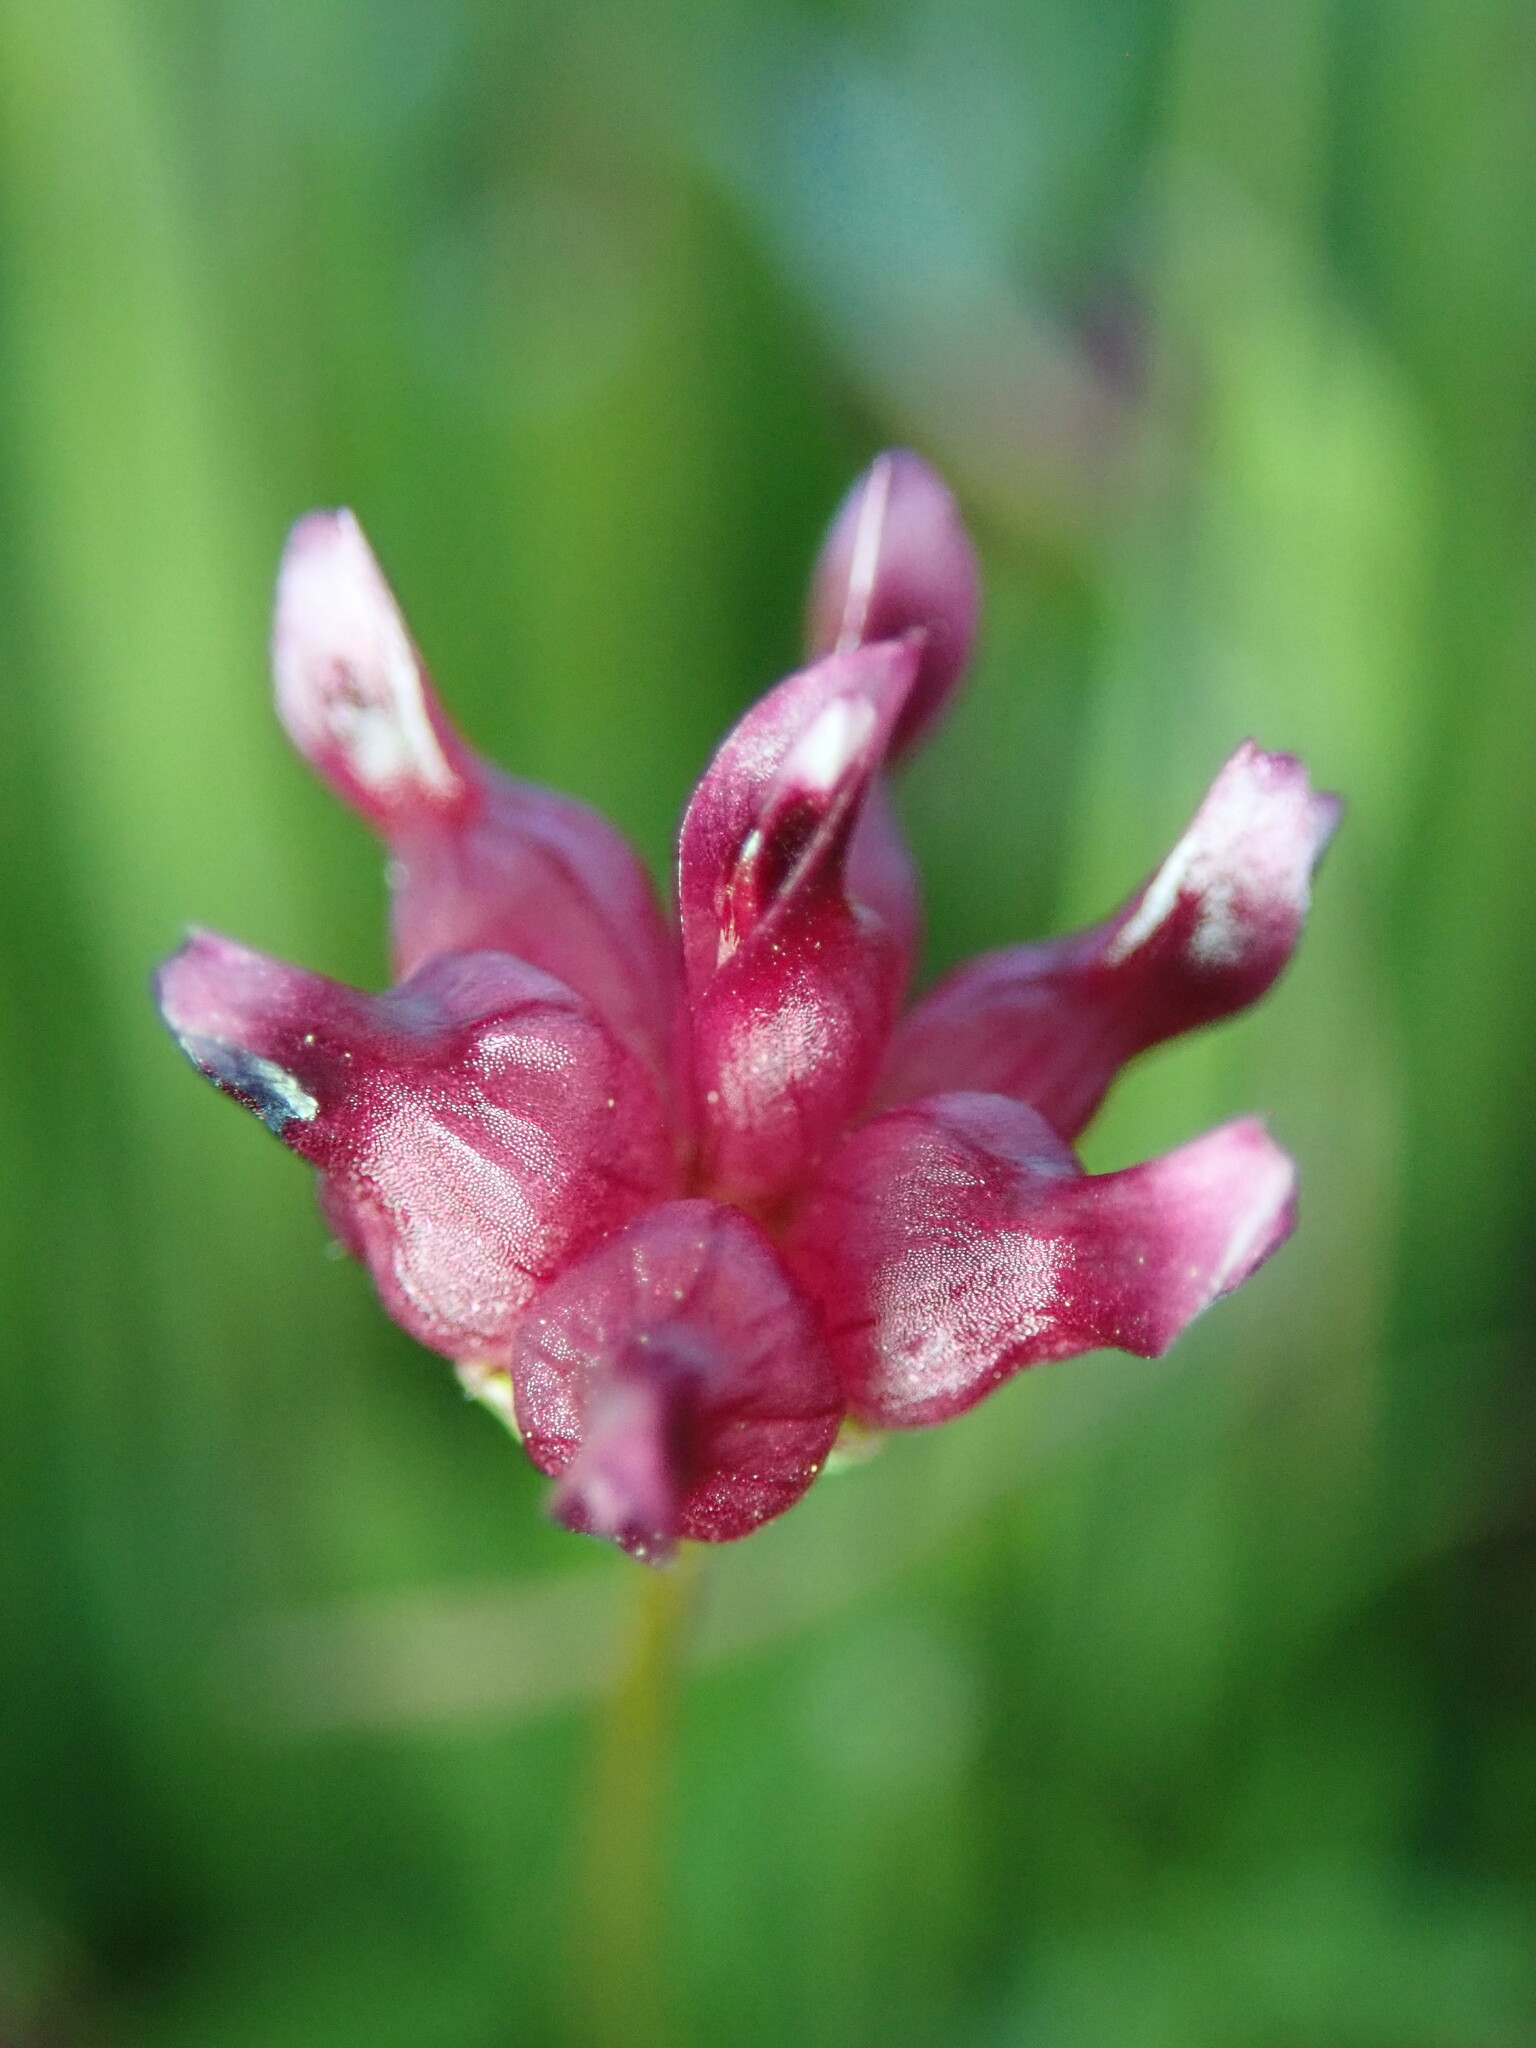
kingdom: Plantae
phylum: Tracheophyta
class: Magnoliopsida
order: Fabales
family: Fabaceae
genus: Trifolium
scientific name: Trifolium depauperatum
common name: Poverty clover
